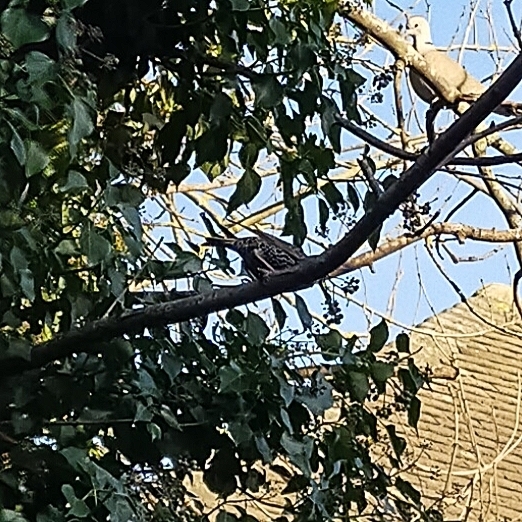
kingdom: Animalia
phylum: Chordata
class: Aves
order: Passeriformes
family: Sturnidae
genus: Sturnus
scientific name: Sturnus vulgaris
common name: Common starling
